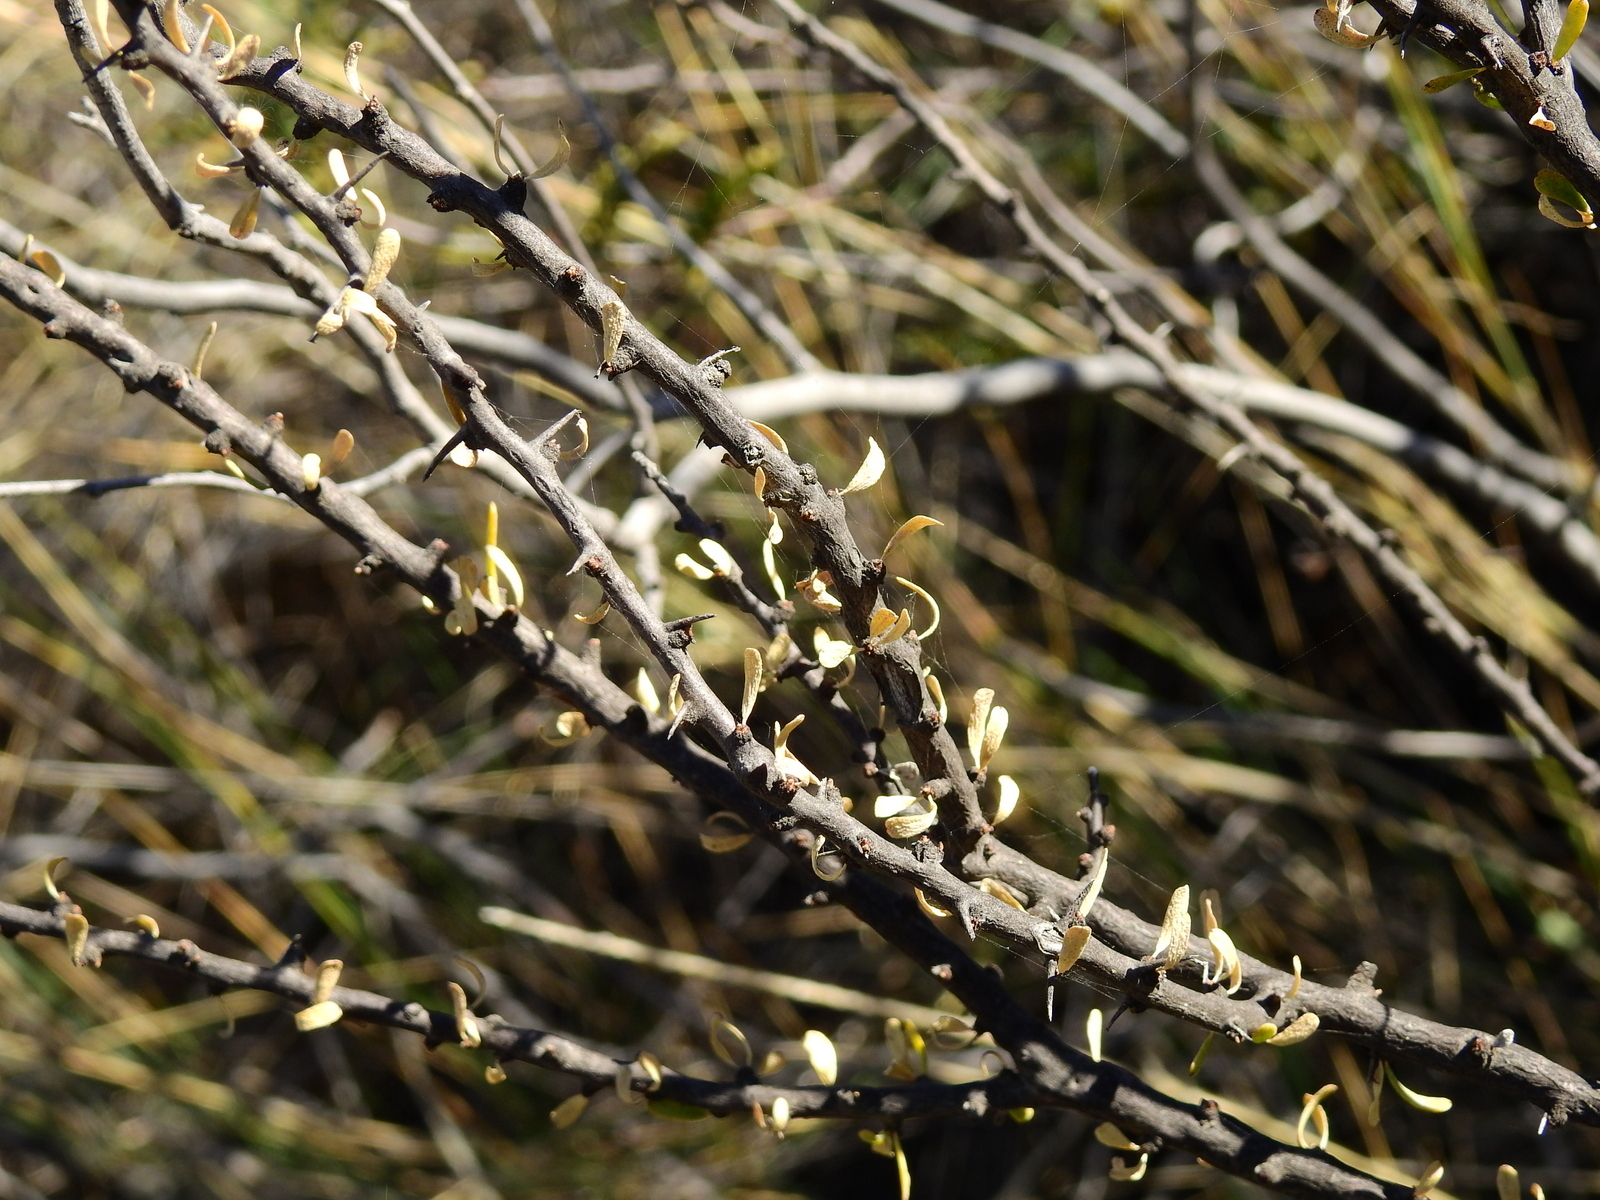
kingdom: Plantae
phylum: Tracheophyta
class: Magnoliopsida
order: Caryophyllales
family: Nyctaginaceae
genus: Bougainvillea
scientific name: Bougainvillea spinosa
